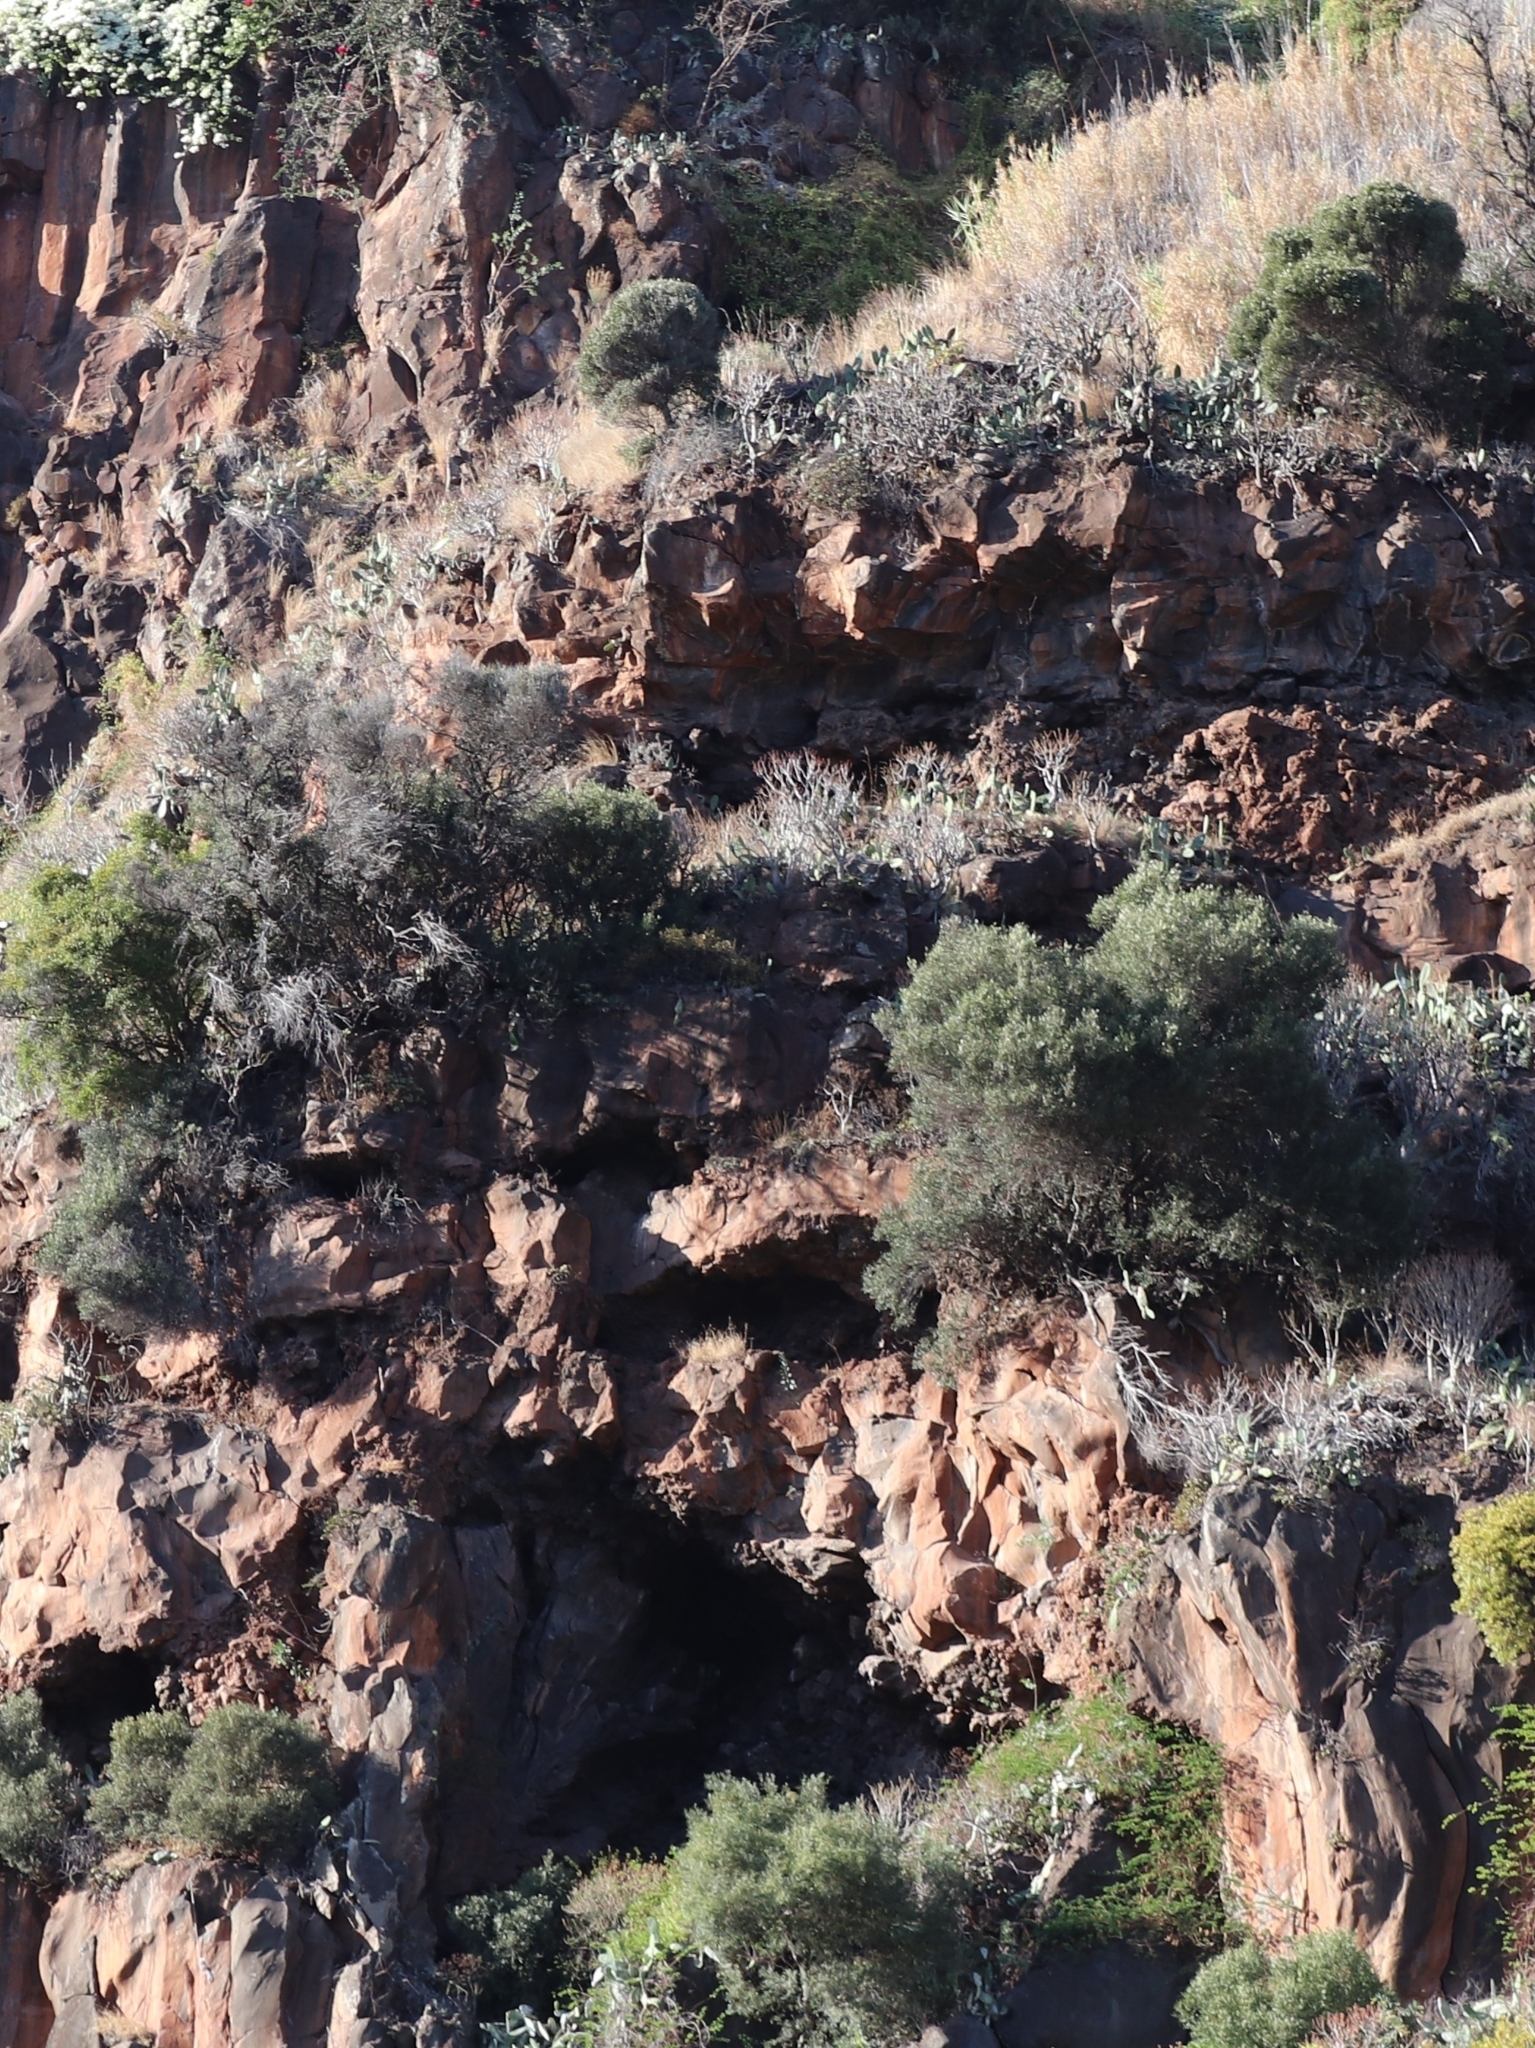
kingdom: Plantae
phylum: Tracheophyta
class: Magnoliopsida
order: Lamiales
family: Oleaceae
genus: Olea
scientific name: Olea europaea
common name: Olive
